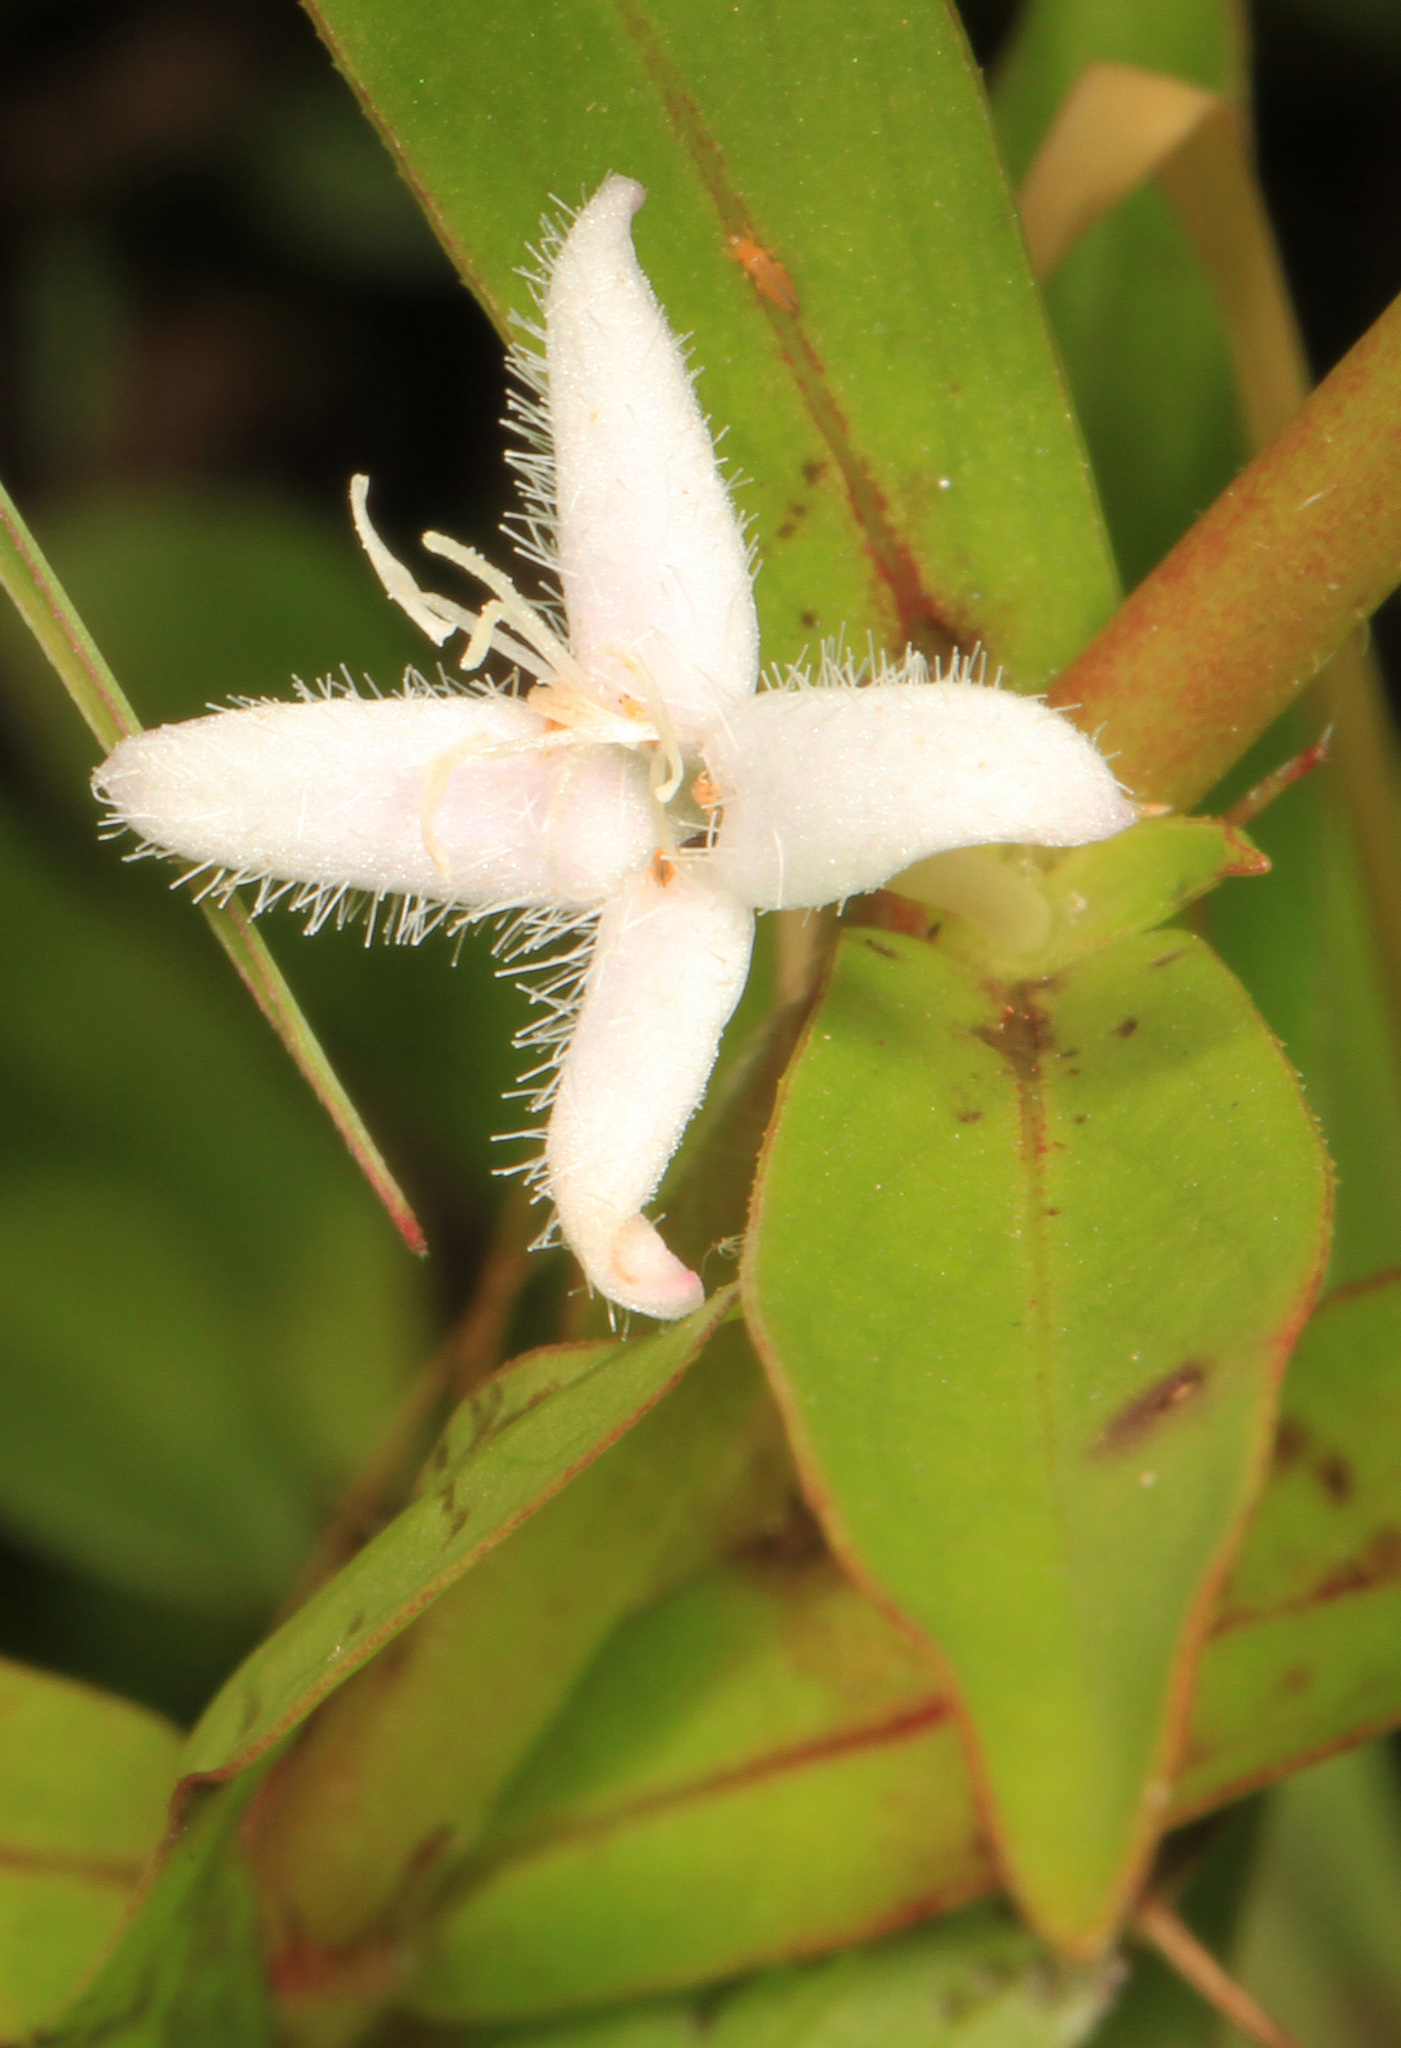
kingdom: Plantae
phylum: Tracheophyta
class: Magnoliopsida
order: Gentianales
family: Rubiaceae
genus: Diodia
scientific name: Diodia virginiana
